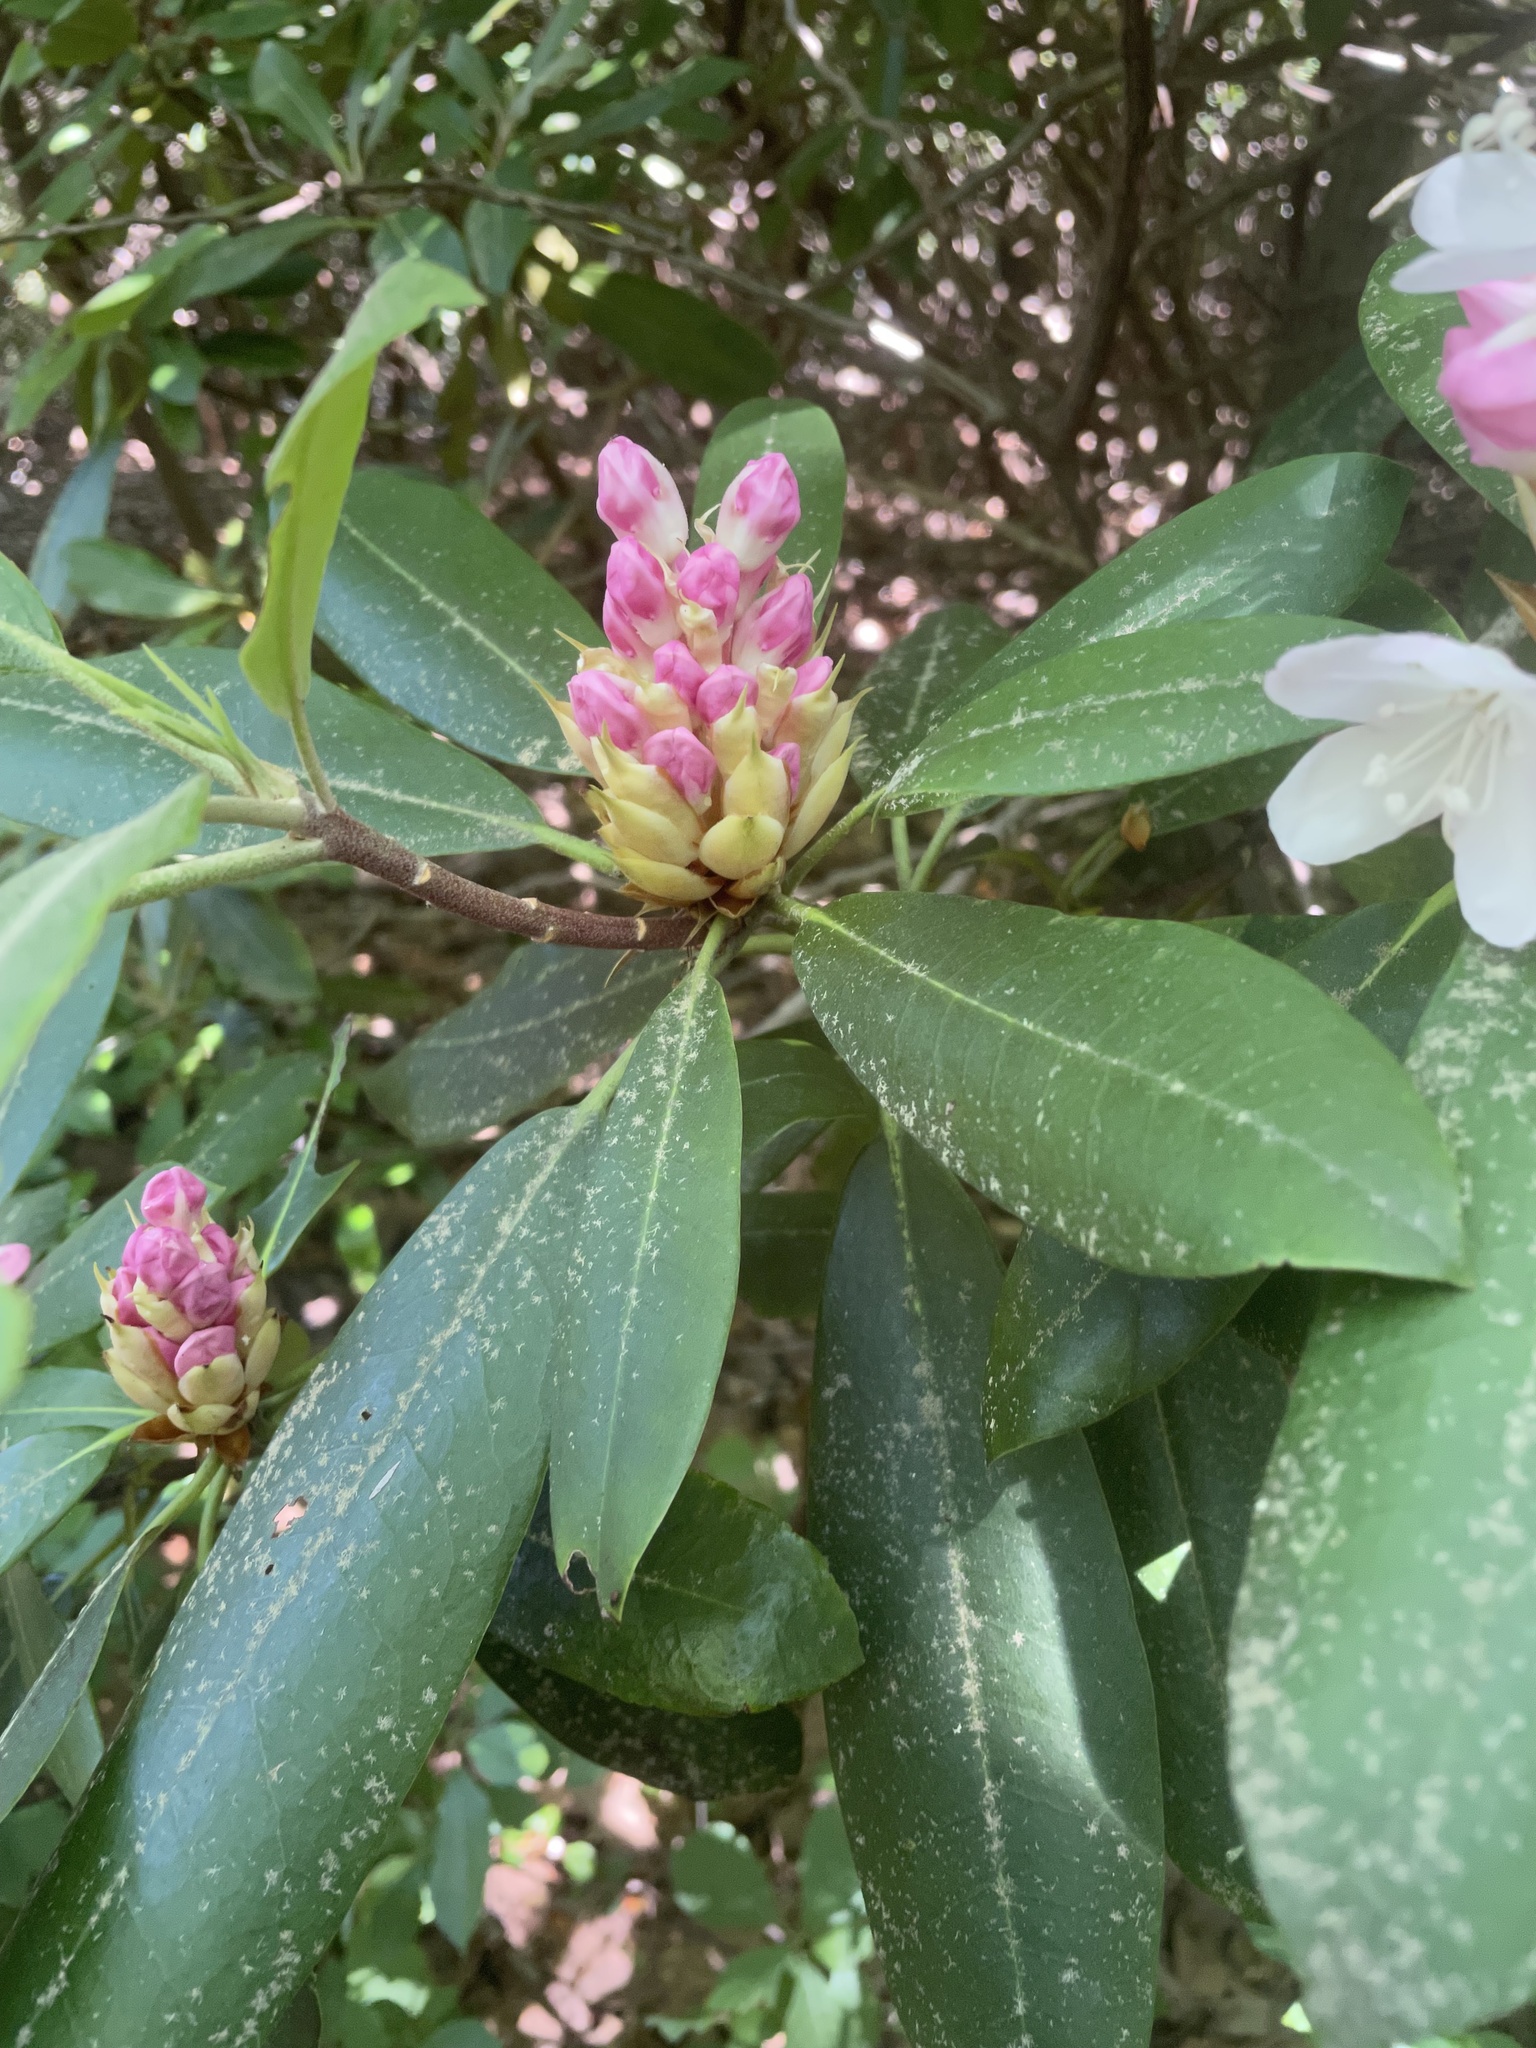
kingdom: Plantae
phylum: Tracheophyta
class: Magnoliopsida
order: Ericales
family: Ericaceae
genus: Rhododendron
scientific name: Rhododendron maximum
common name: Great rhododendron
